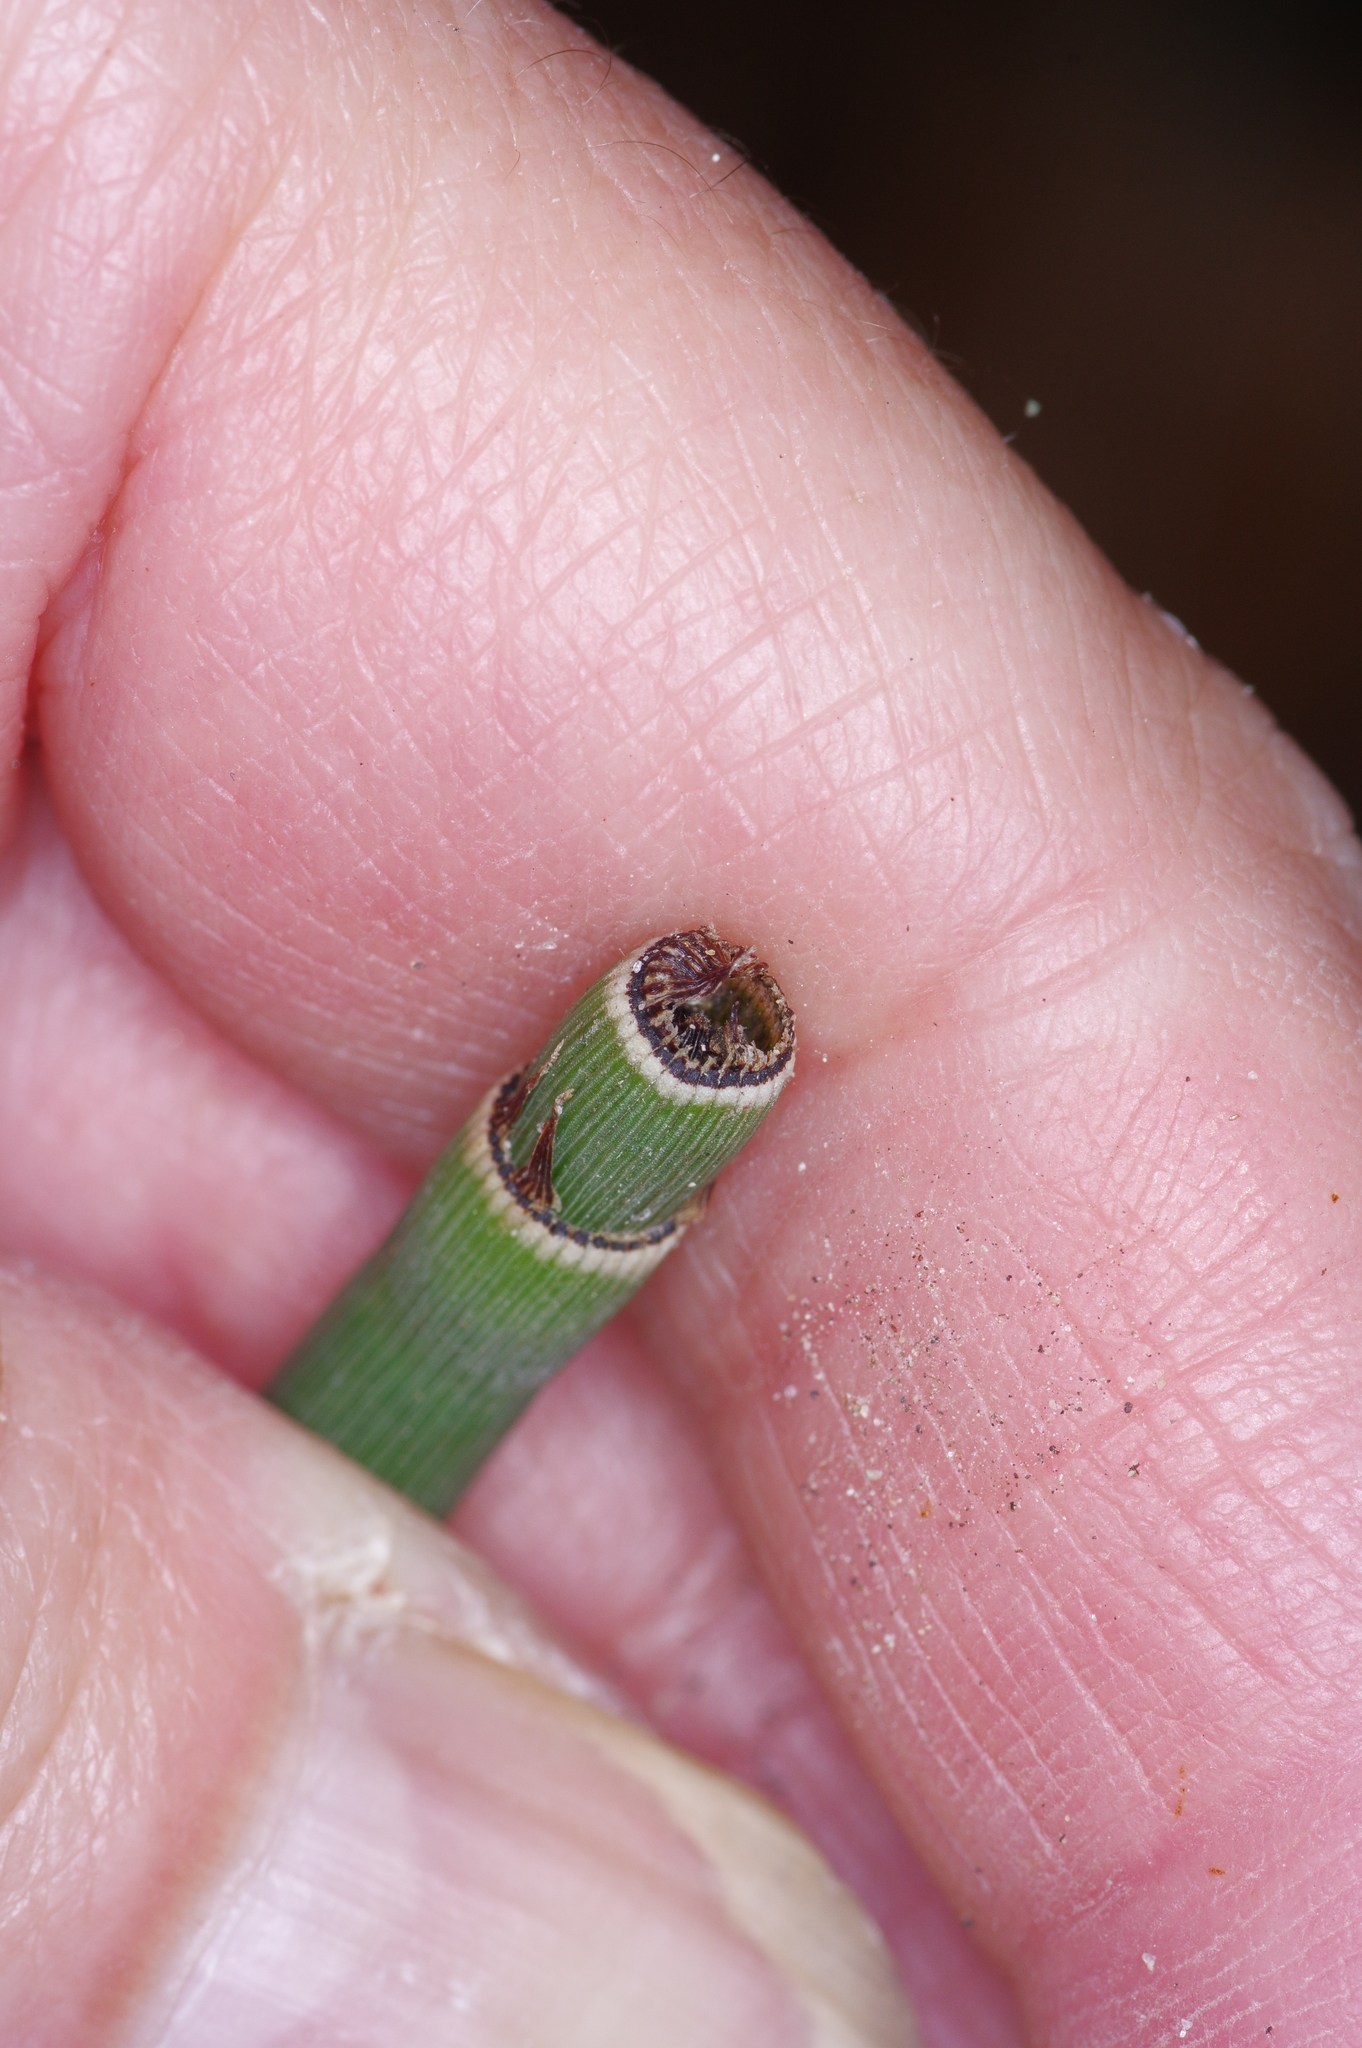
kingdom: Plantae
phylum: Tracheophyta
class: Polypodiopsida
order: Equisetales
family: Equisetaceae
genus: Equisetum
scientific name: Equisetum ferrissii
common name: Ferriss' horsetail
